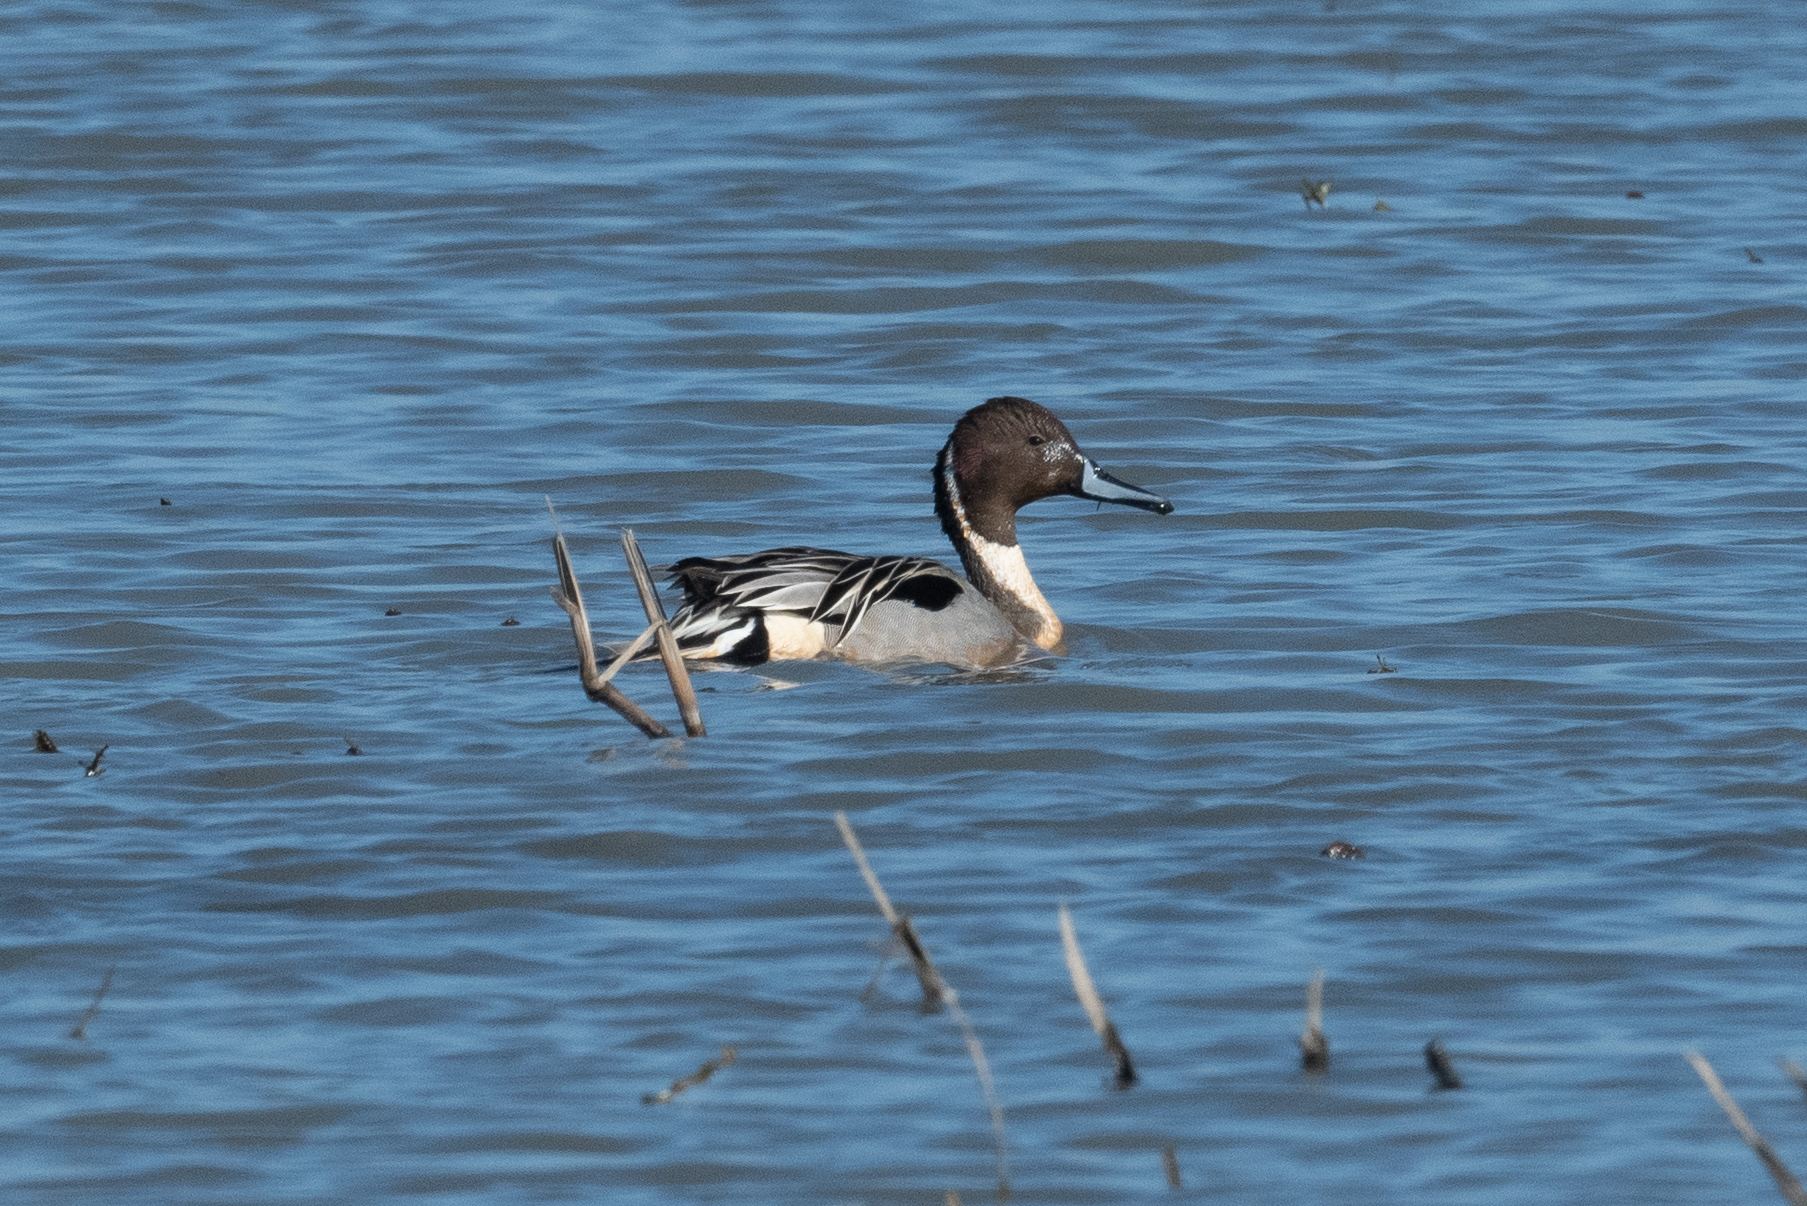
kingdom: Animalia
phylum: Chordata
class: Aves
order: Anseriformes
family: Anatidae
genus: Anas
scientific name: Anas acuta
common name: Northern pintail
